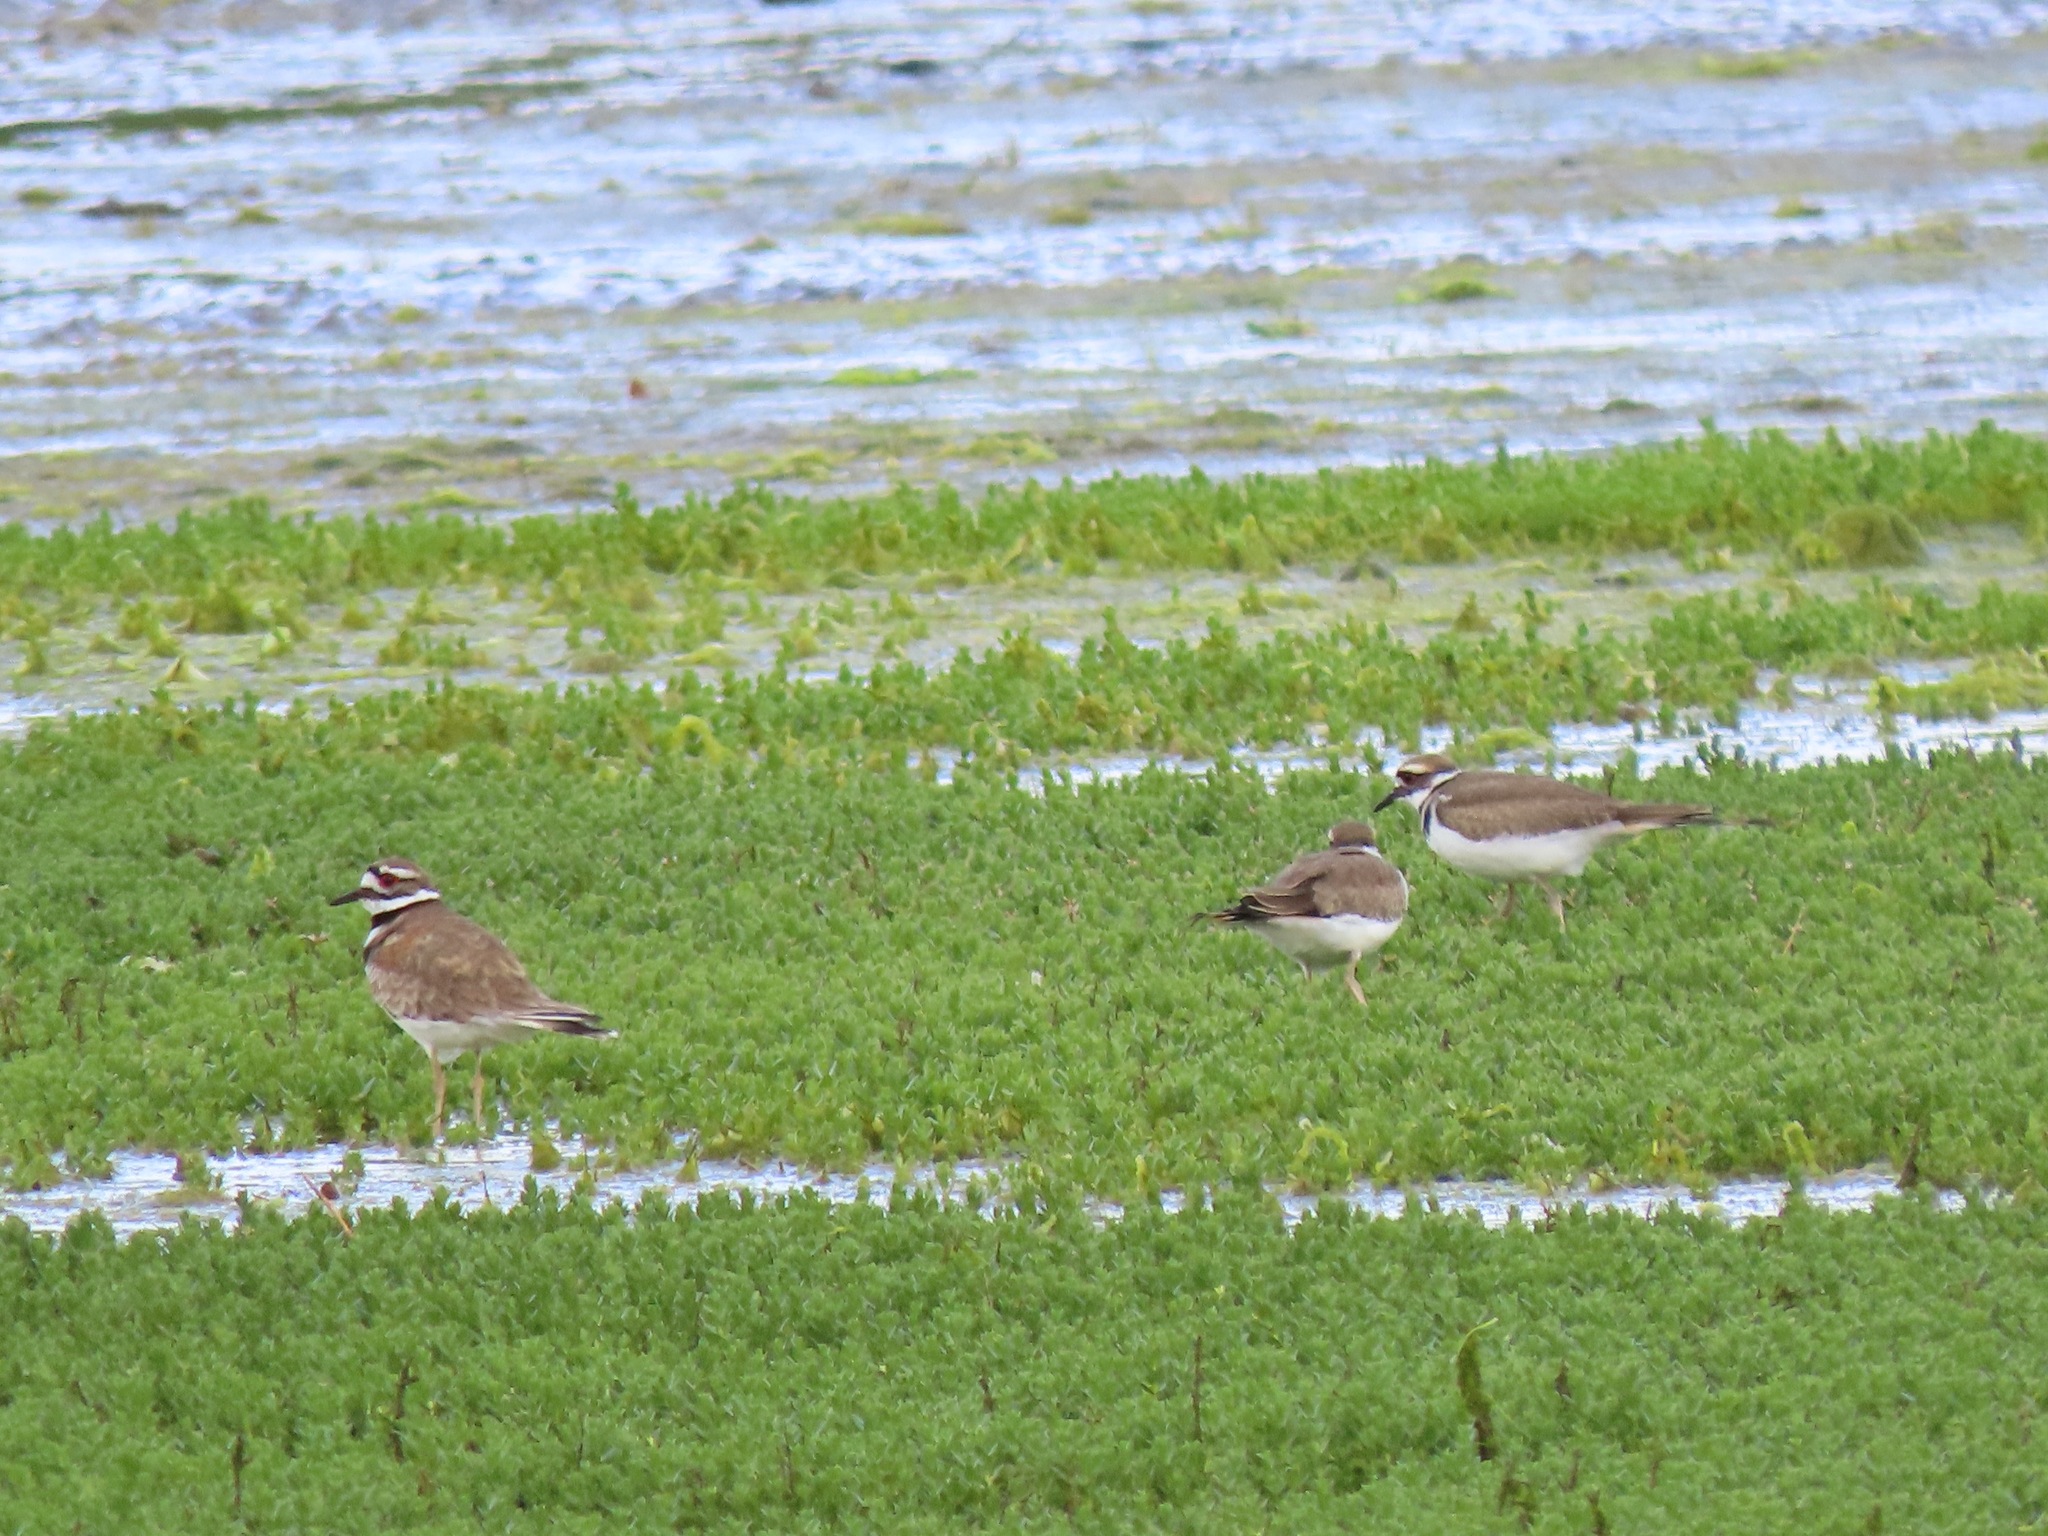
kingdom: Animalia
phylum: Chordata
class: Aves
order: Charadriiformes
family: Charadriidae
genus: Charadrius
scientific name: Charadrius vociferus
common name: Killdeer
